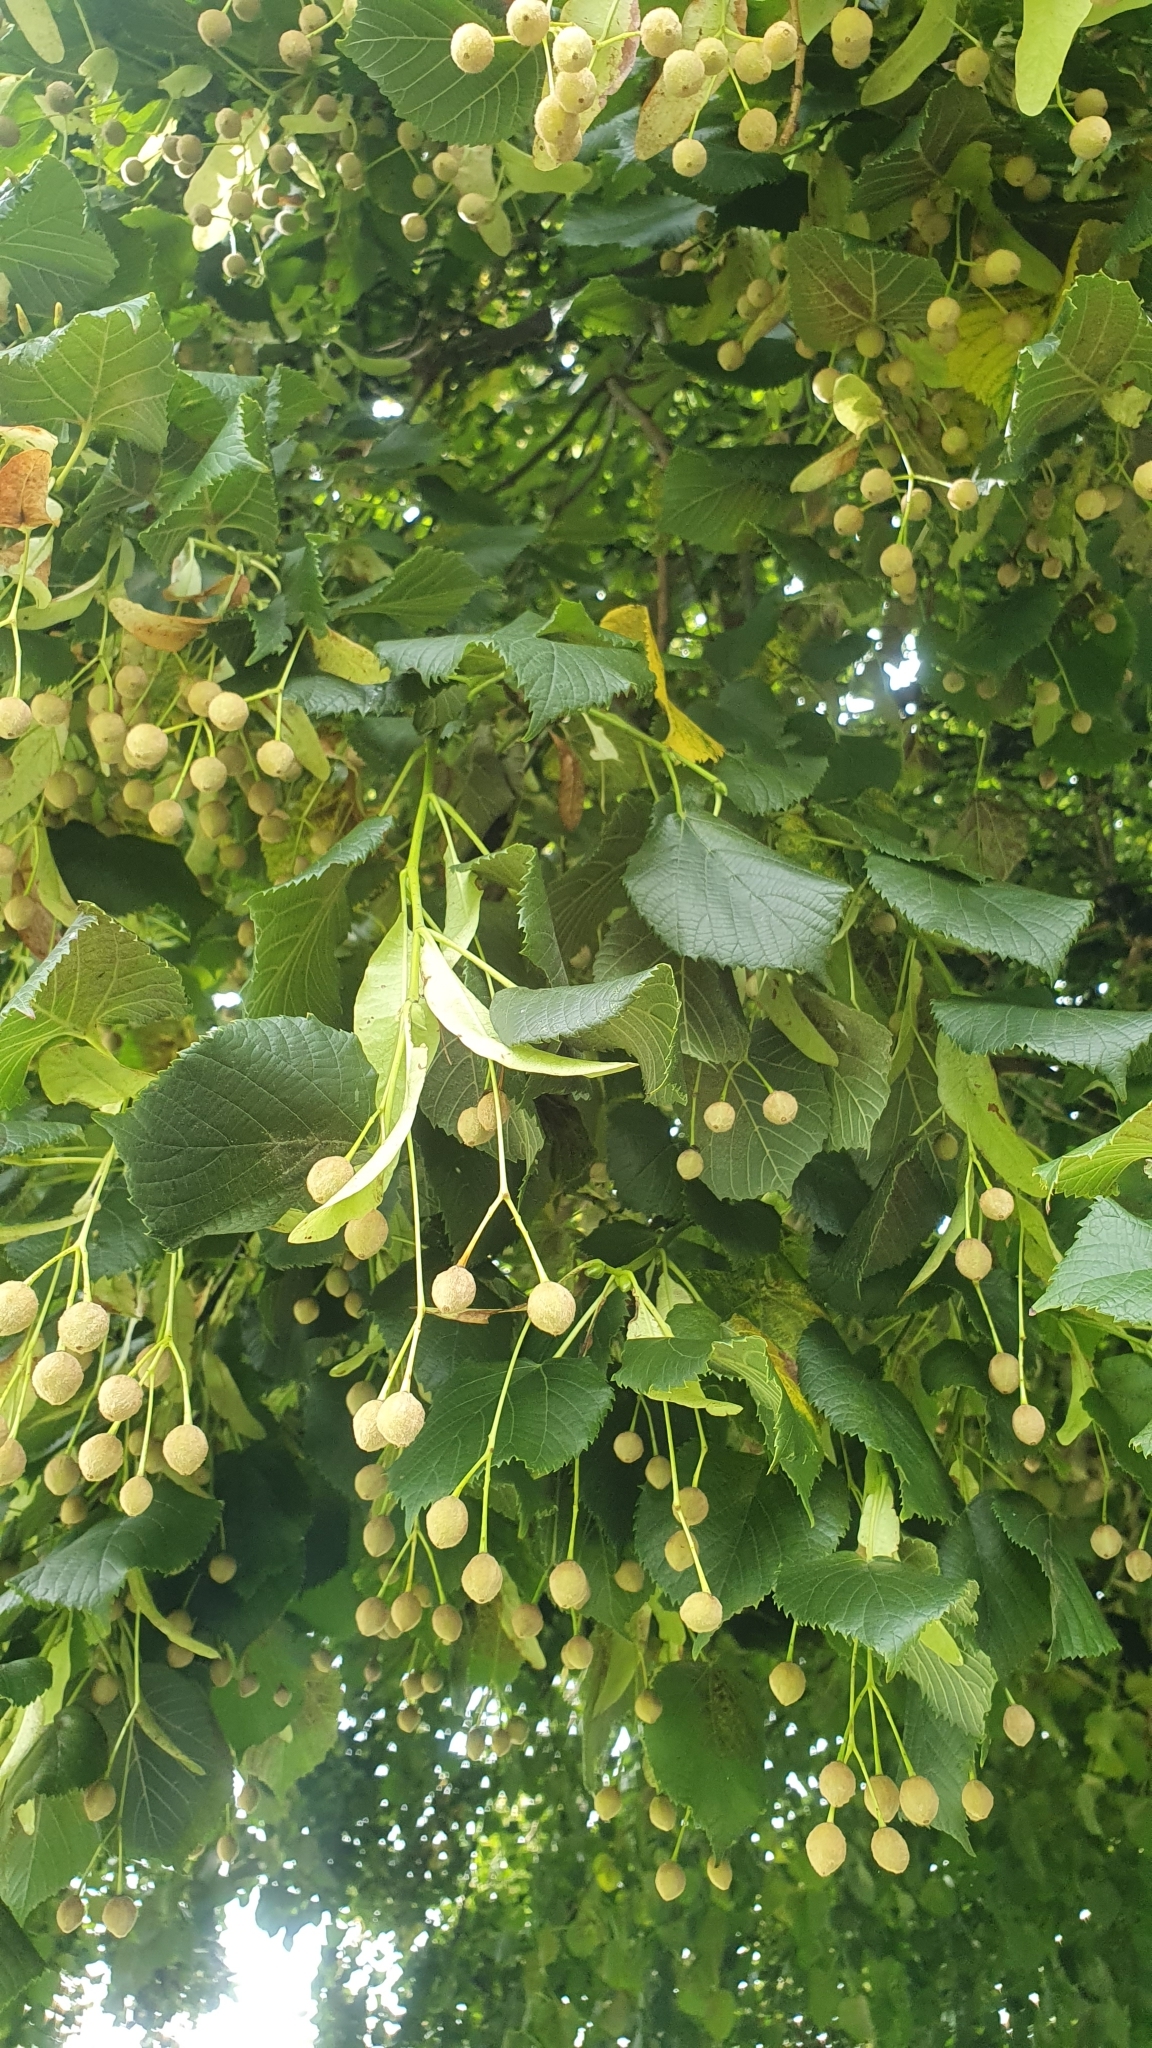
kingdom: Plantae
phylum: Tracheophyta
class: Magnoliopsida
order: Malvales
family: Malvaceae
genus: Tilia
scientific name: Tilia cordata
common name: Small-leaved lime
